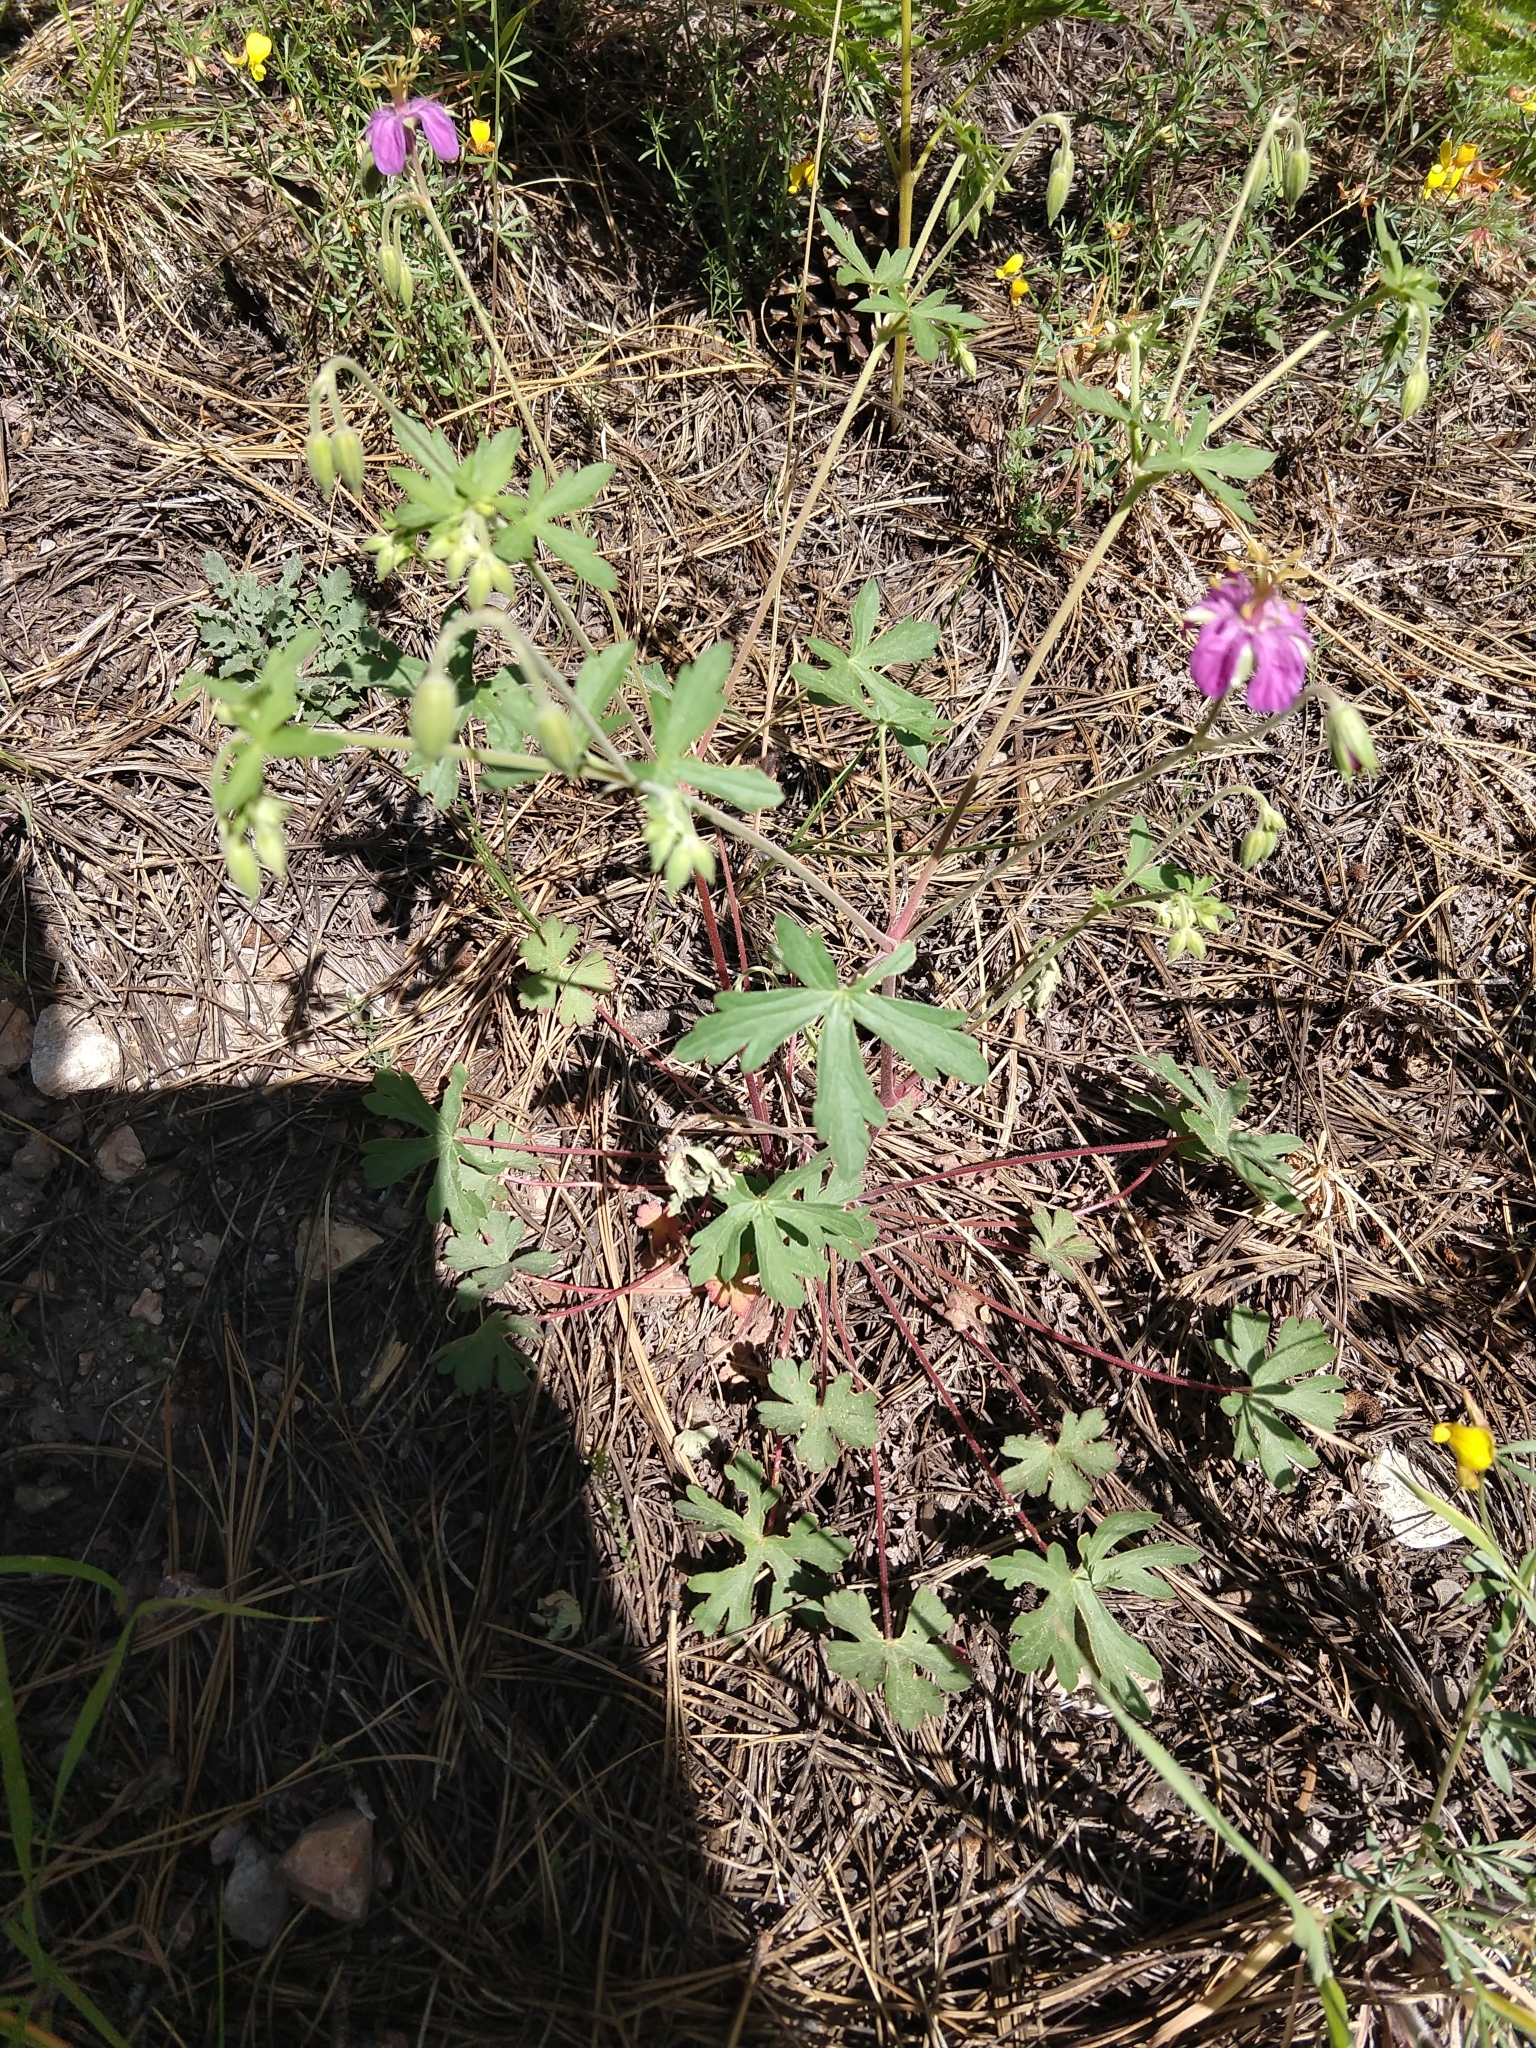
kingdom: Plantae
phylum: Tracheophyta
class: Magnoliopsida
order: Geraniales
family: Geraniaceae
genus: Geranium
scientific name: Geranium caespitosum
